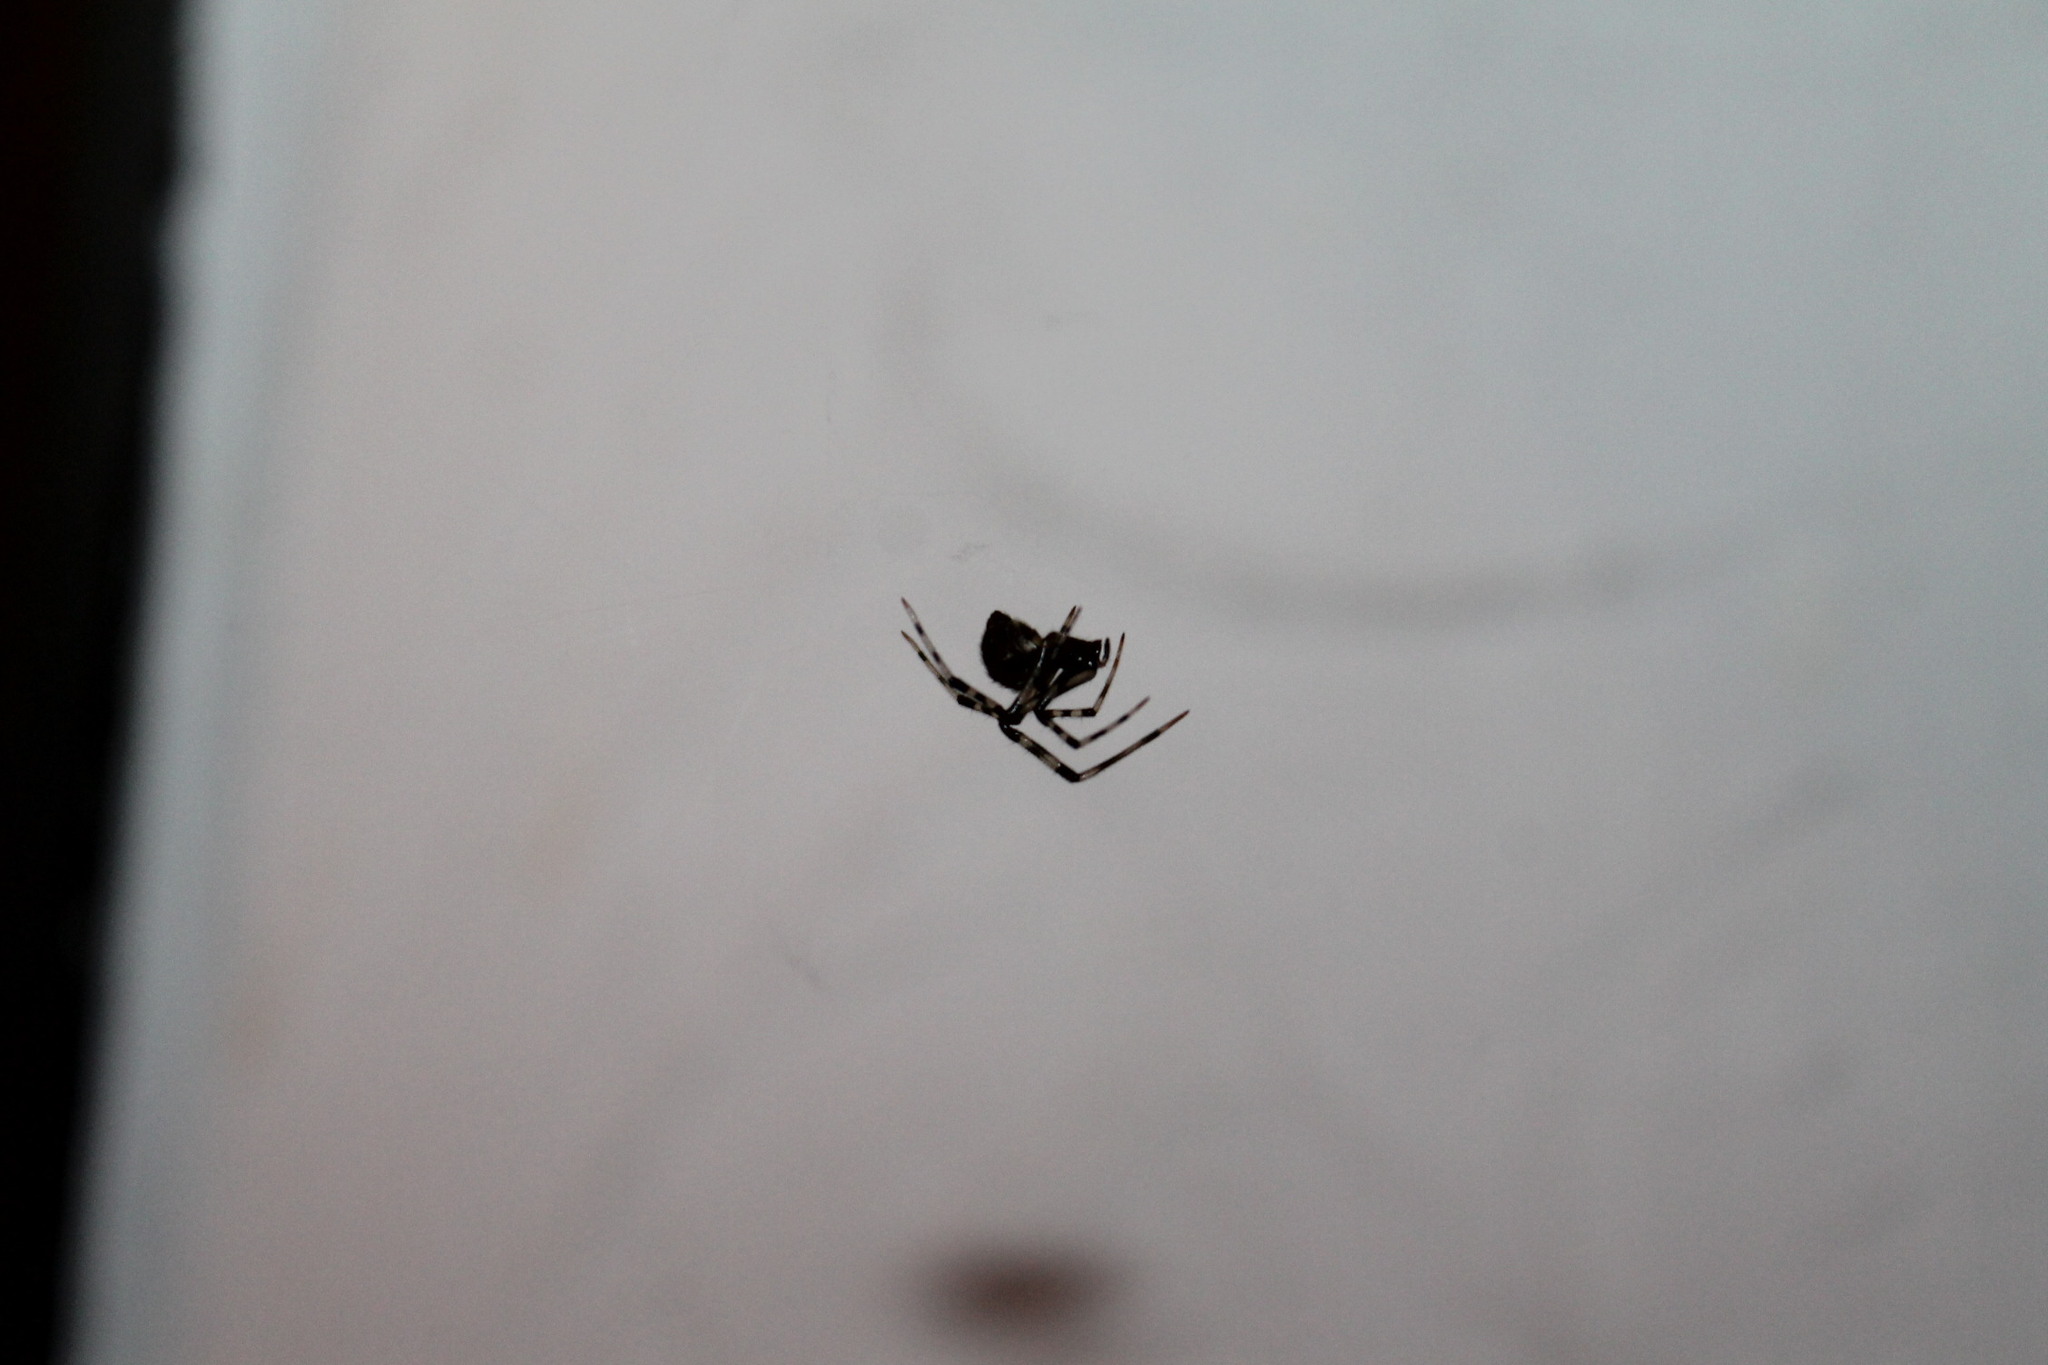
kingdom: Animalia
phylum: Arthropoda
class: Arachnida
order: Araneae
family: Theridiidae
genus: Parasteatoda
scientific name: Parasteatoda tepidariorum
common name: Common house spider
